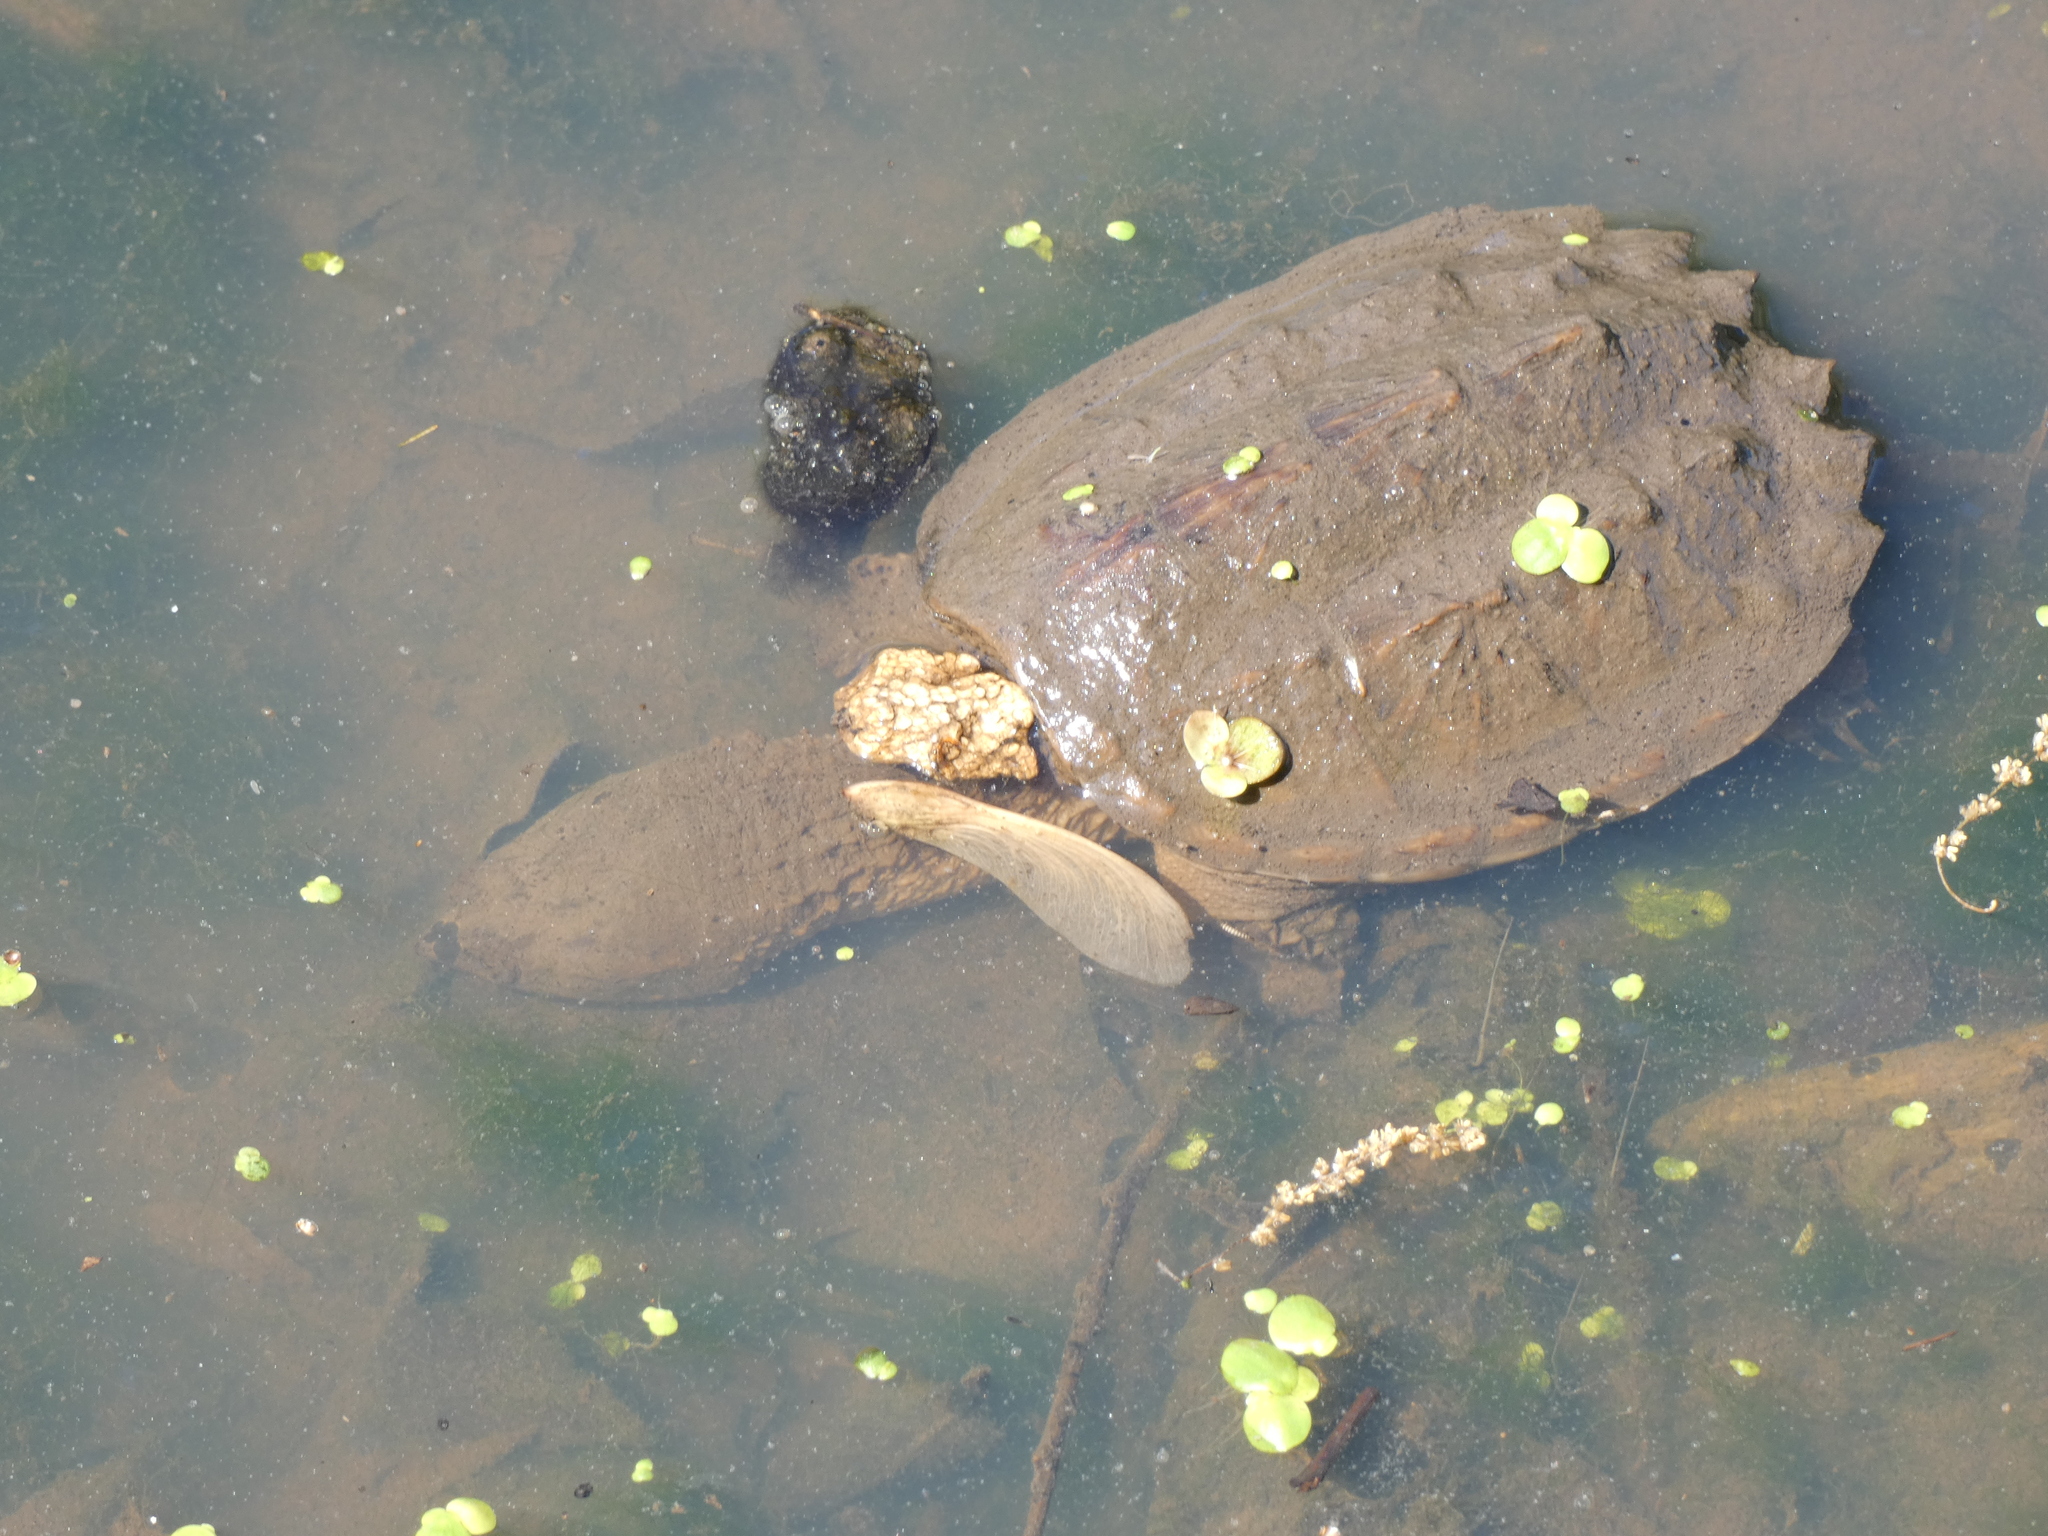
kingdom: Animalia
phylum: Chordata
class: Testudines
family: Chelydridae
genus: Chelydra
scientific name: Chelydra serpentina
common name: Common snapping turtle
